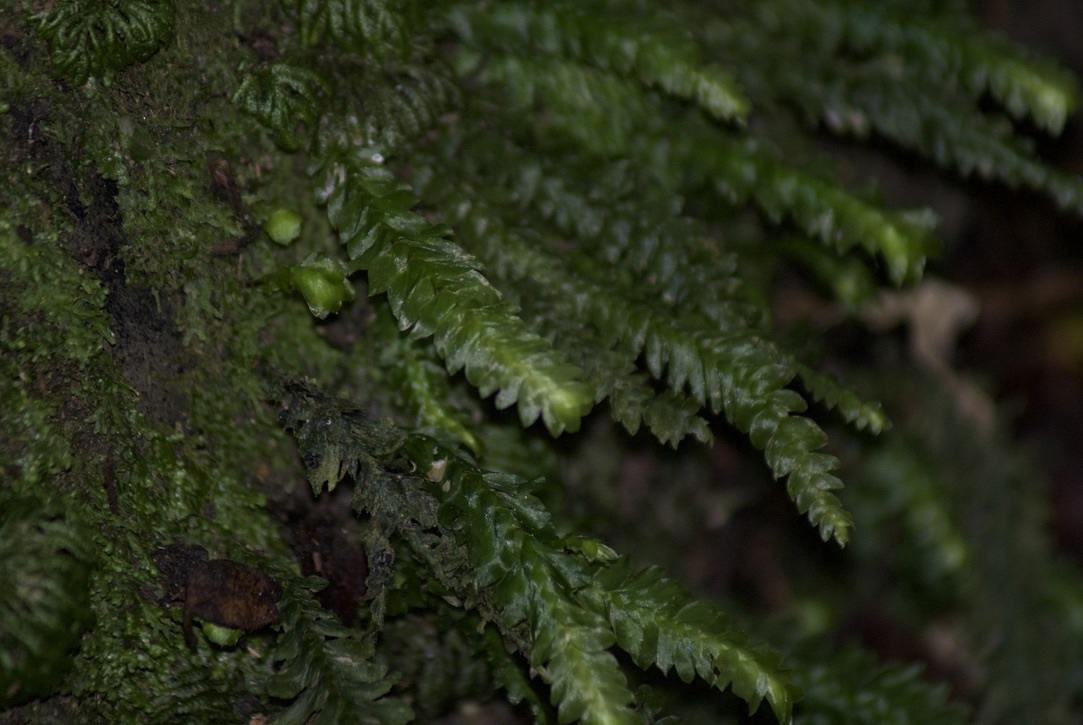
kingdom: Plantae
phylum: Bryophyta
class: Bryopsida
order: Hypopterygiales
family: Hypopterygiaceae
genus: Cyathophorum
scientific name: Cyathophorum bulbosum
